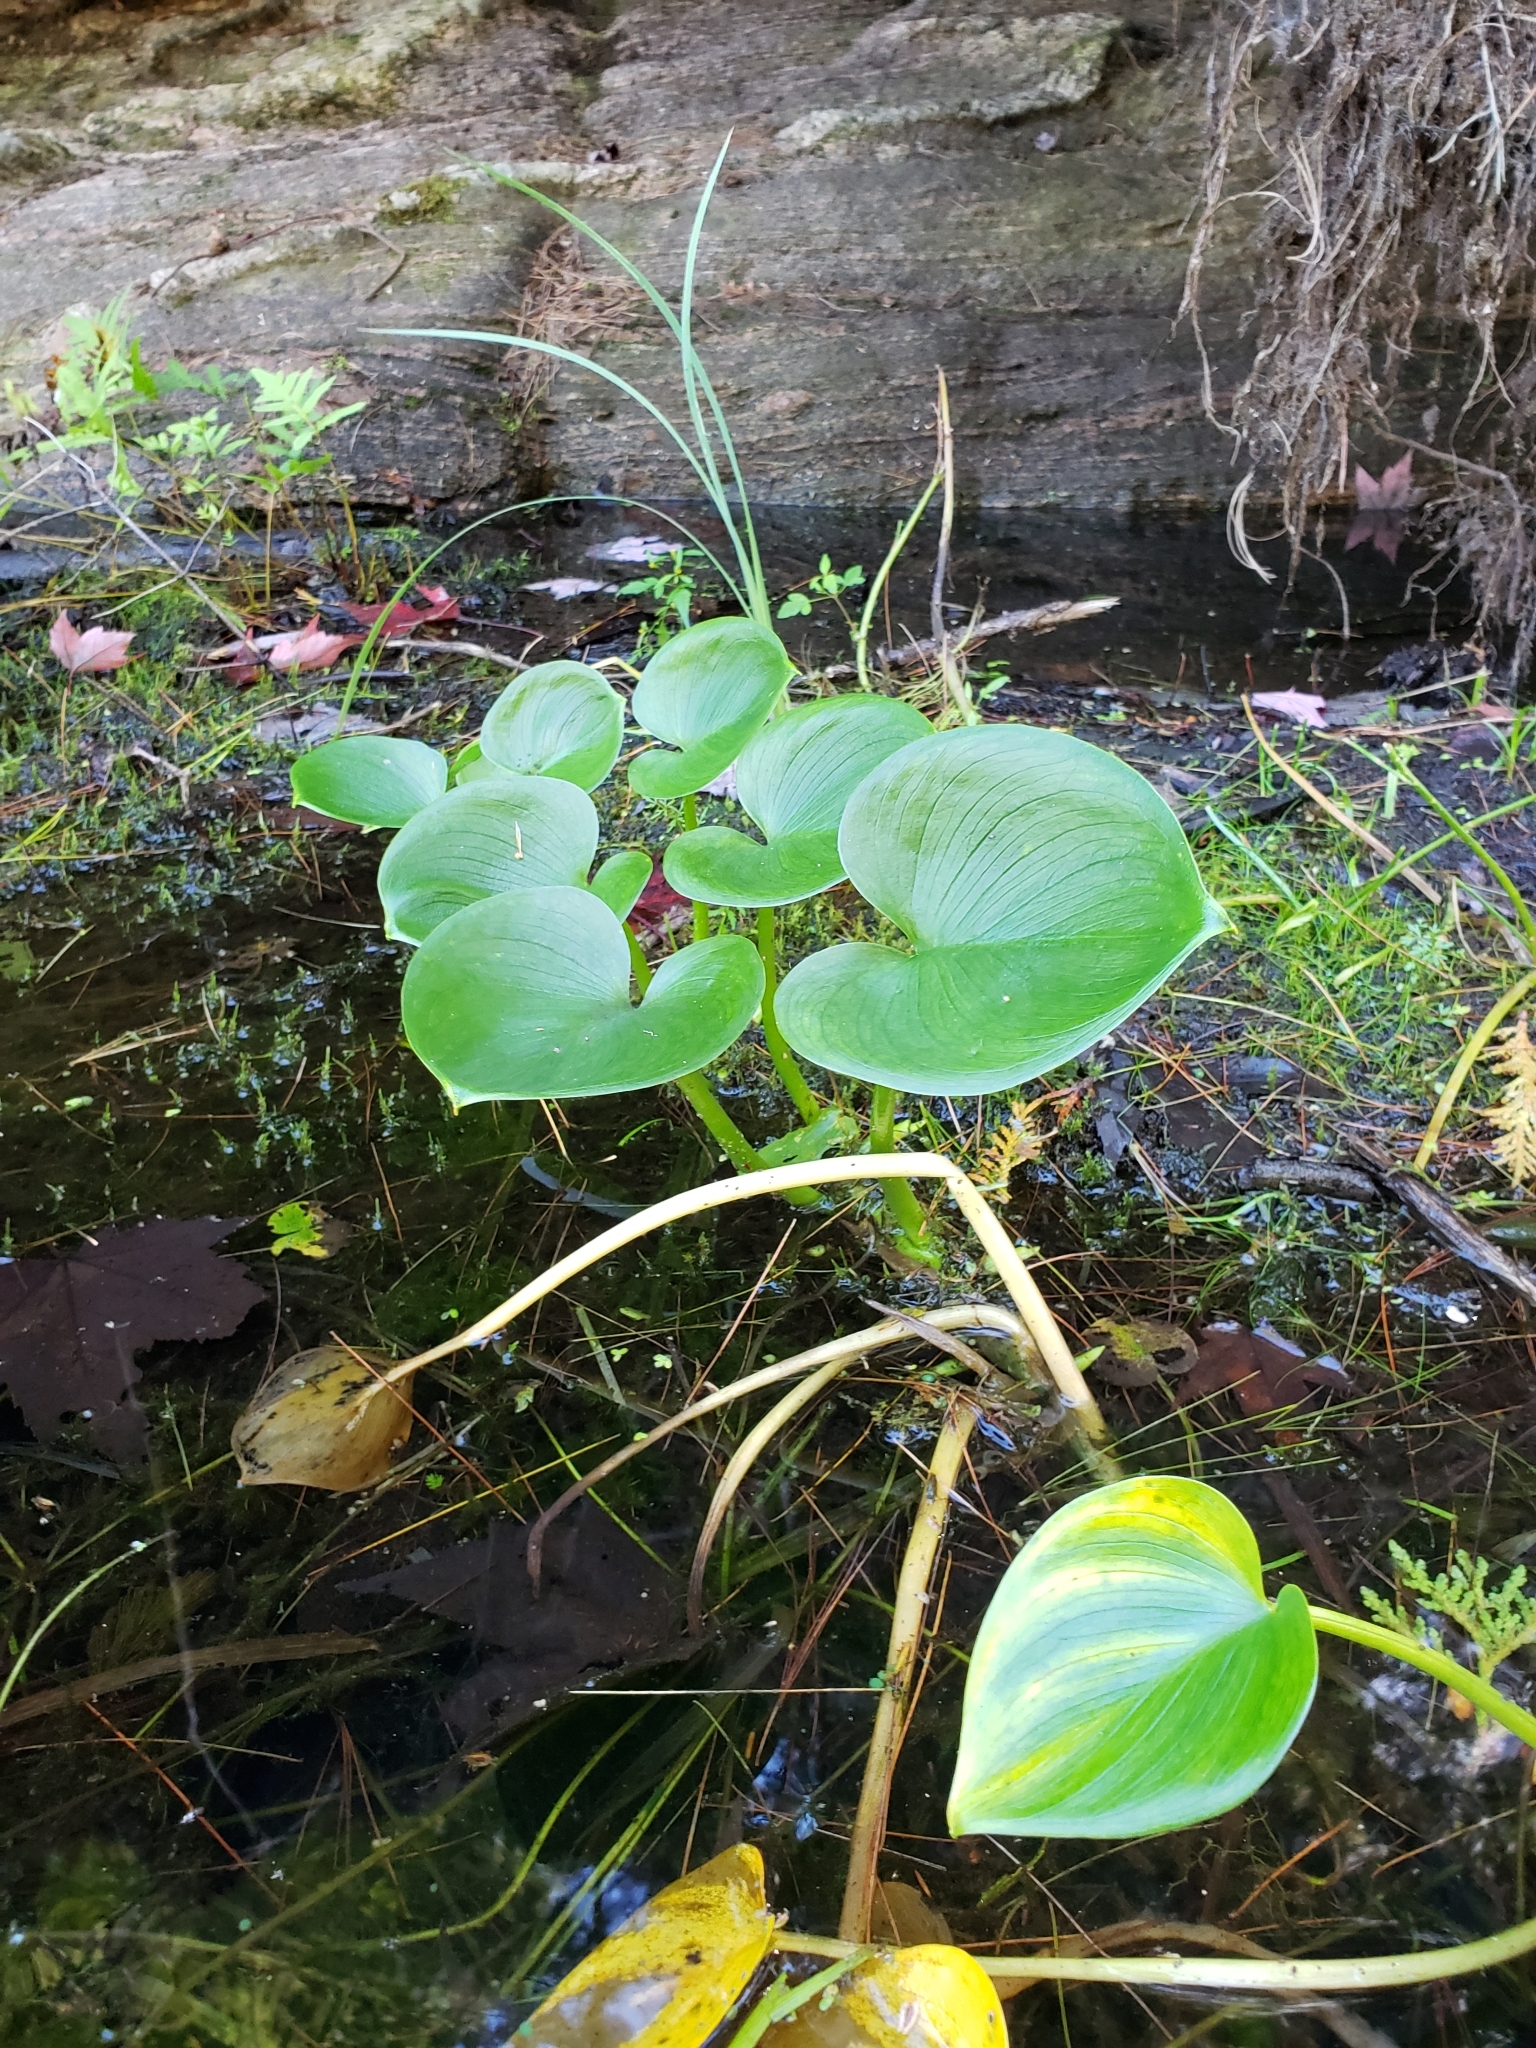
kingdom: Plantae
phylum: Tracheophyta
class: Liliopsida
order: Alismatales
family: Araceae
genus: Calla
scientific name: Calla palustris
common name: Bog arum
